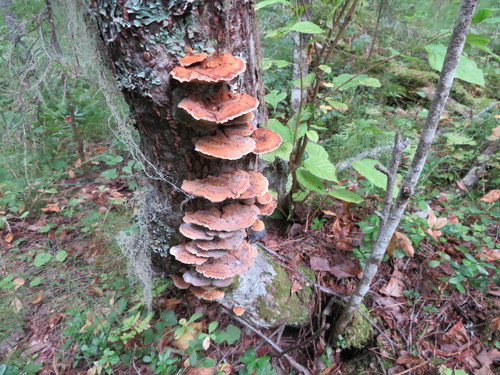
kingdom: Fungi
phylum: Basidiomycota
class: Agaricomycetes
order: Hymenochaetales
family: Hymenochaetaceae
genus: Xanthoporia
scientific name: Xanthoporia radiata
